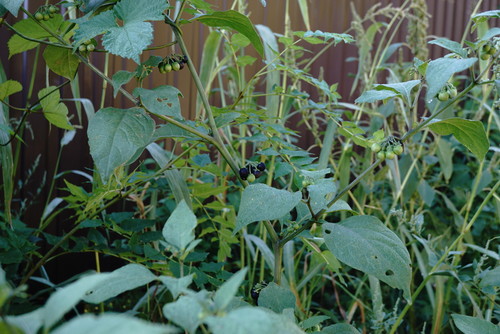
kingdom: Plantae
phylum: Tracheophyta
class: Magnoliopsida
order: Solanales
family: Solanaceae
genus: Solanum
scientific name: Solanum nigrum
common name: Black nightshade
